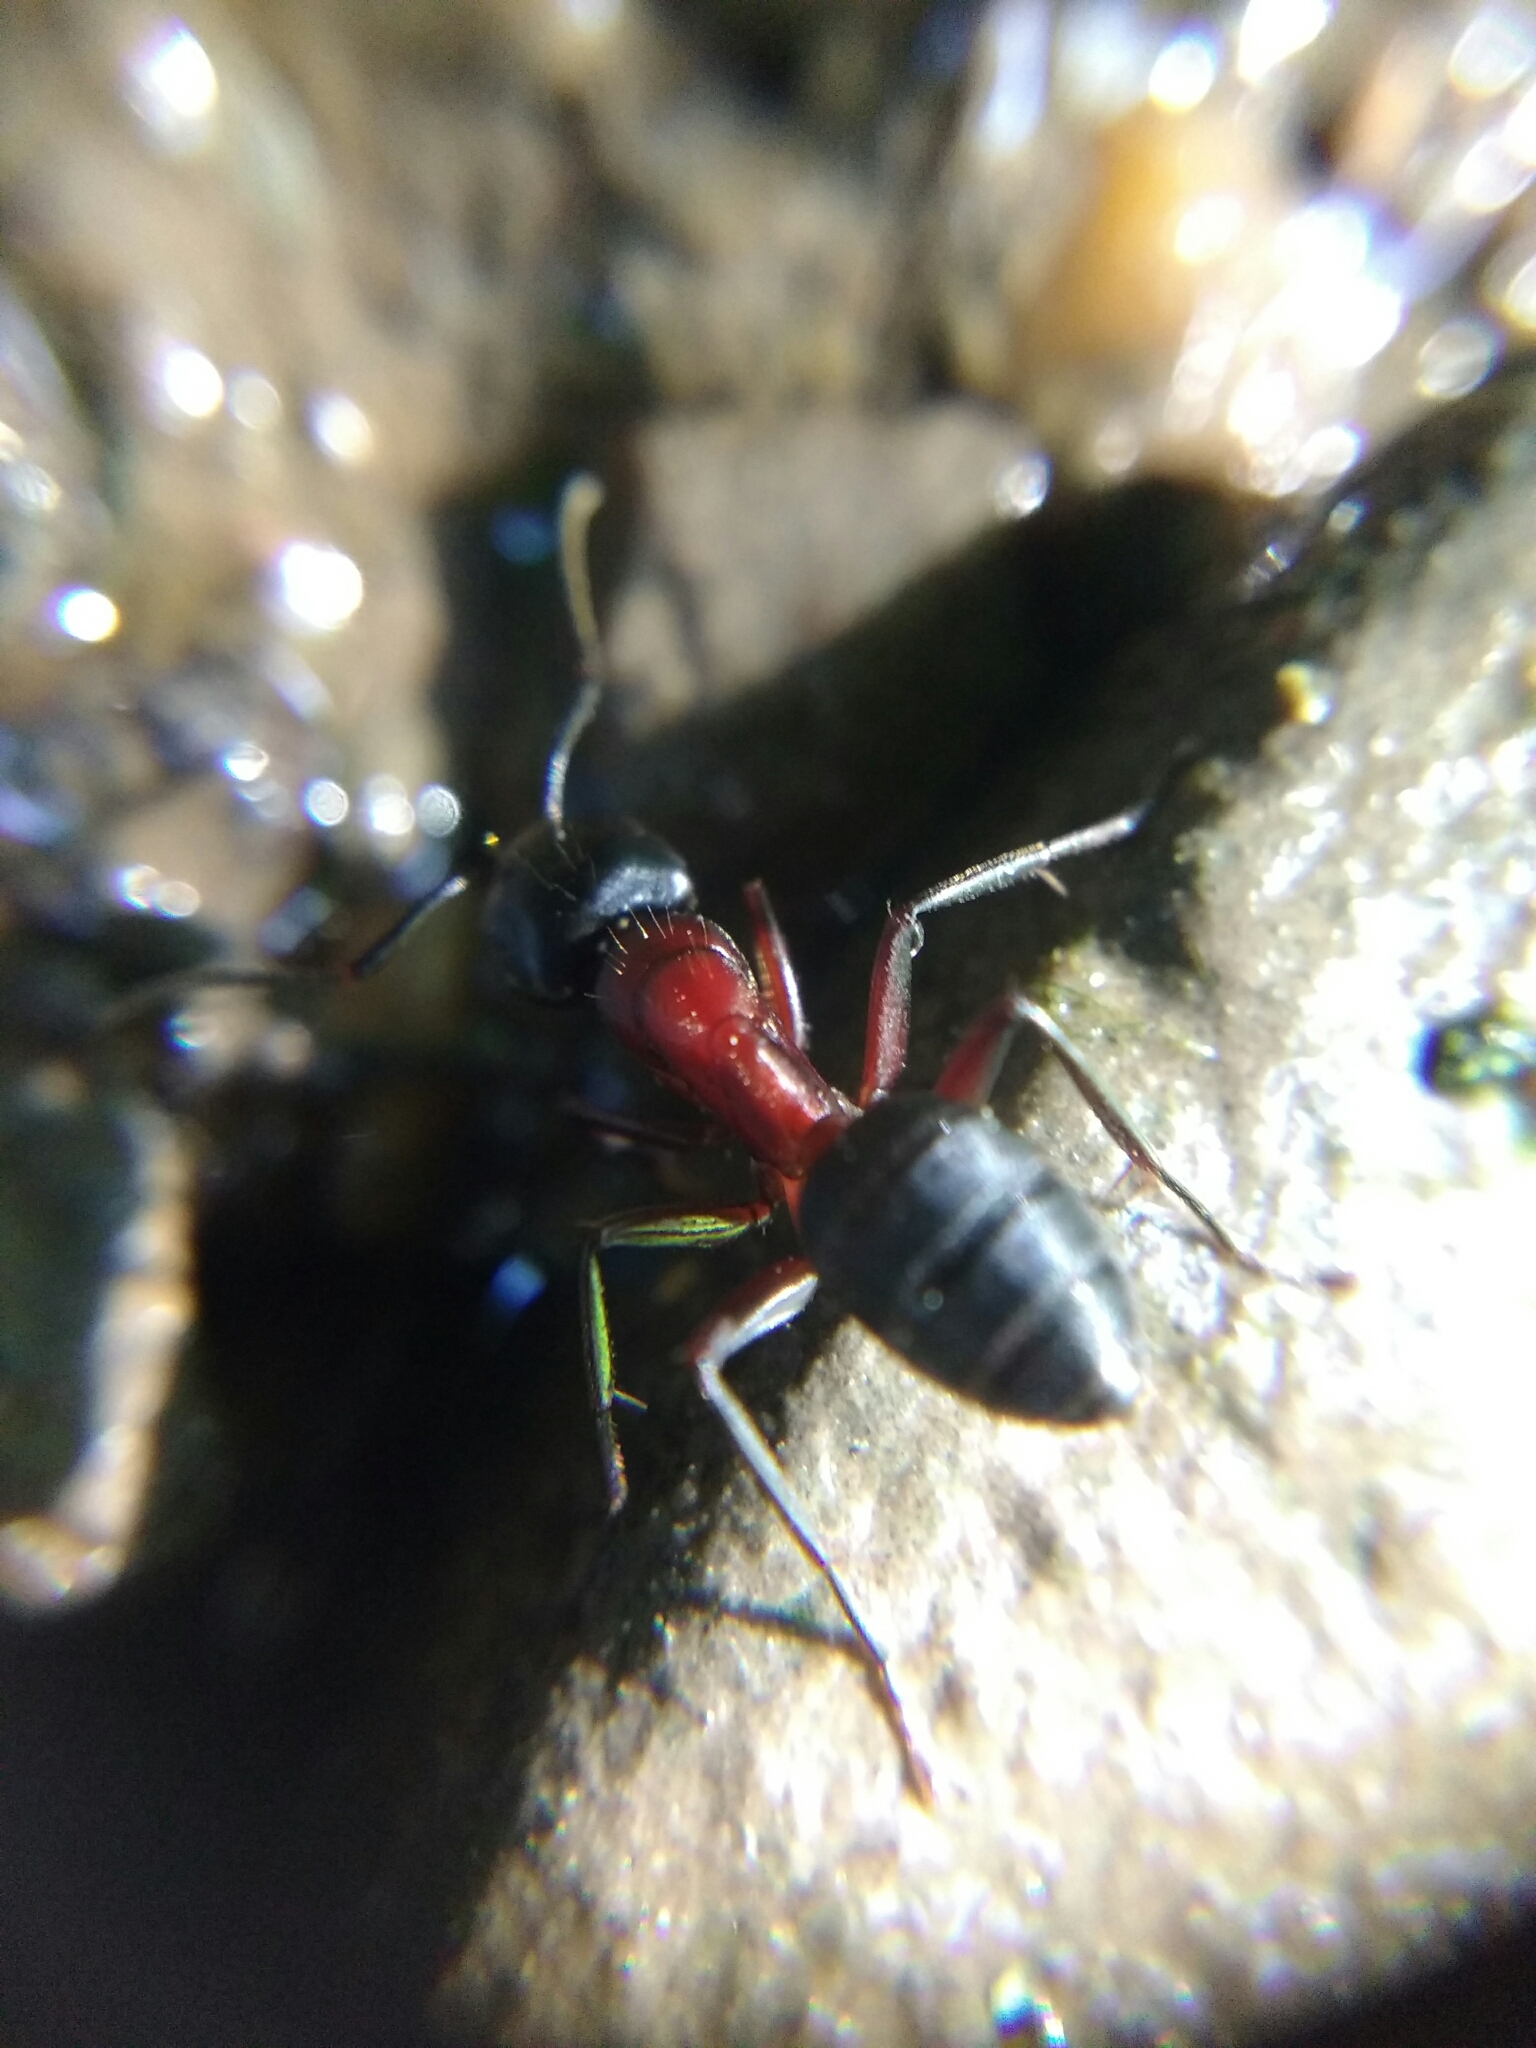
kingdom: Animalia
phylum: Arthropoda
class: Insecta
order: Hymenoptera
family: Formicidae
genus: Camponotus
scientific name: Camponotus ligniperdus
